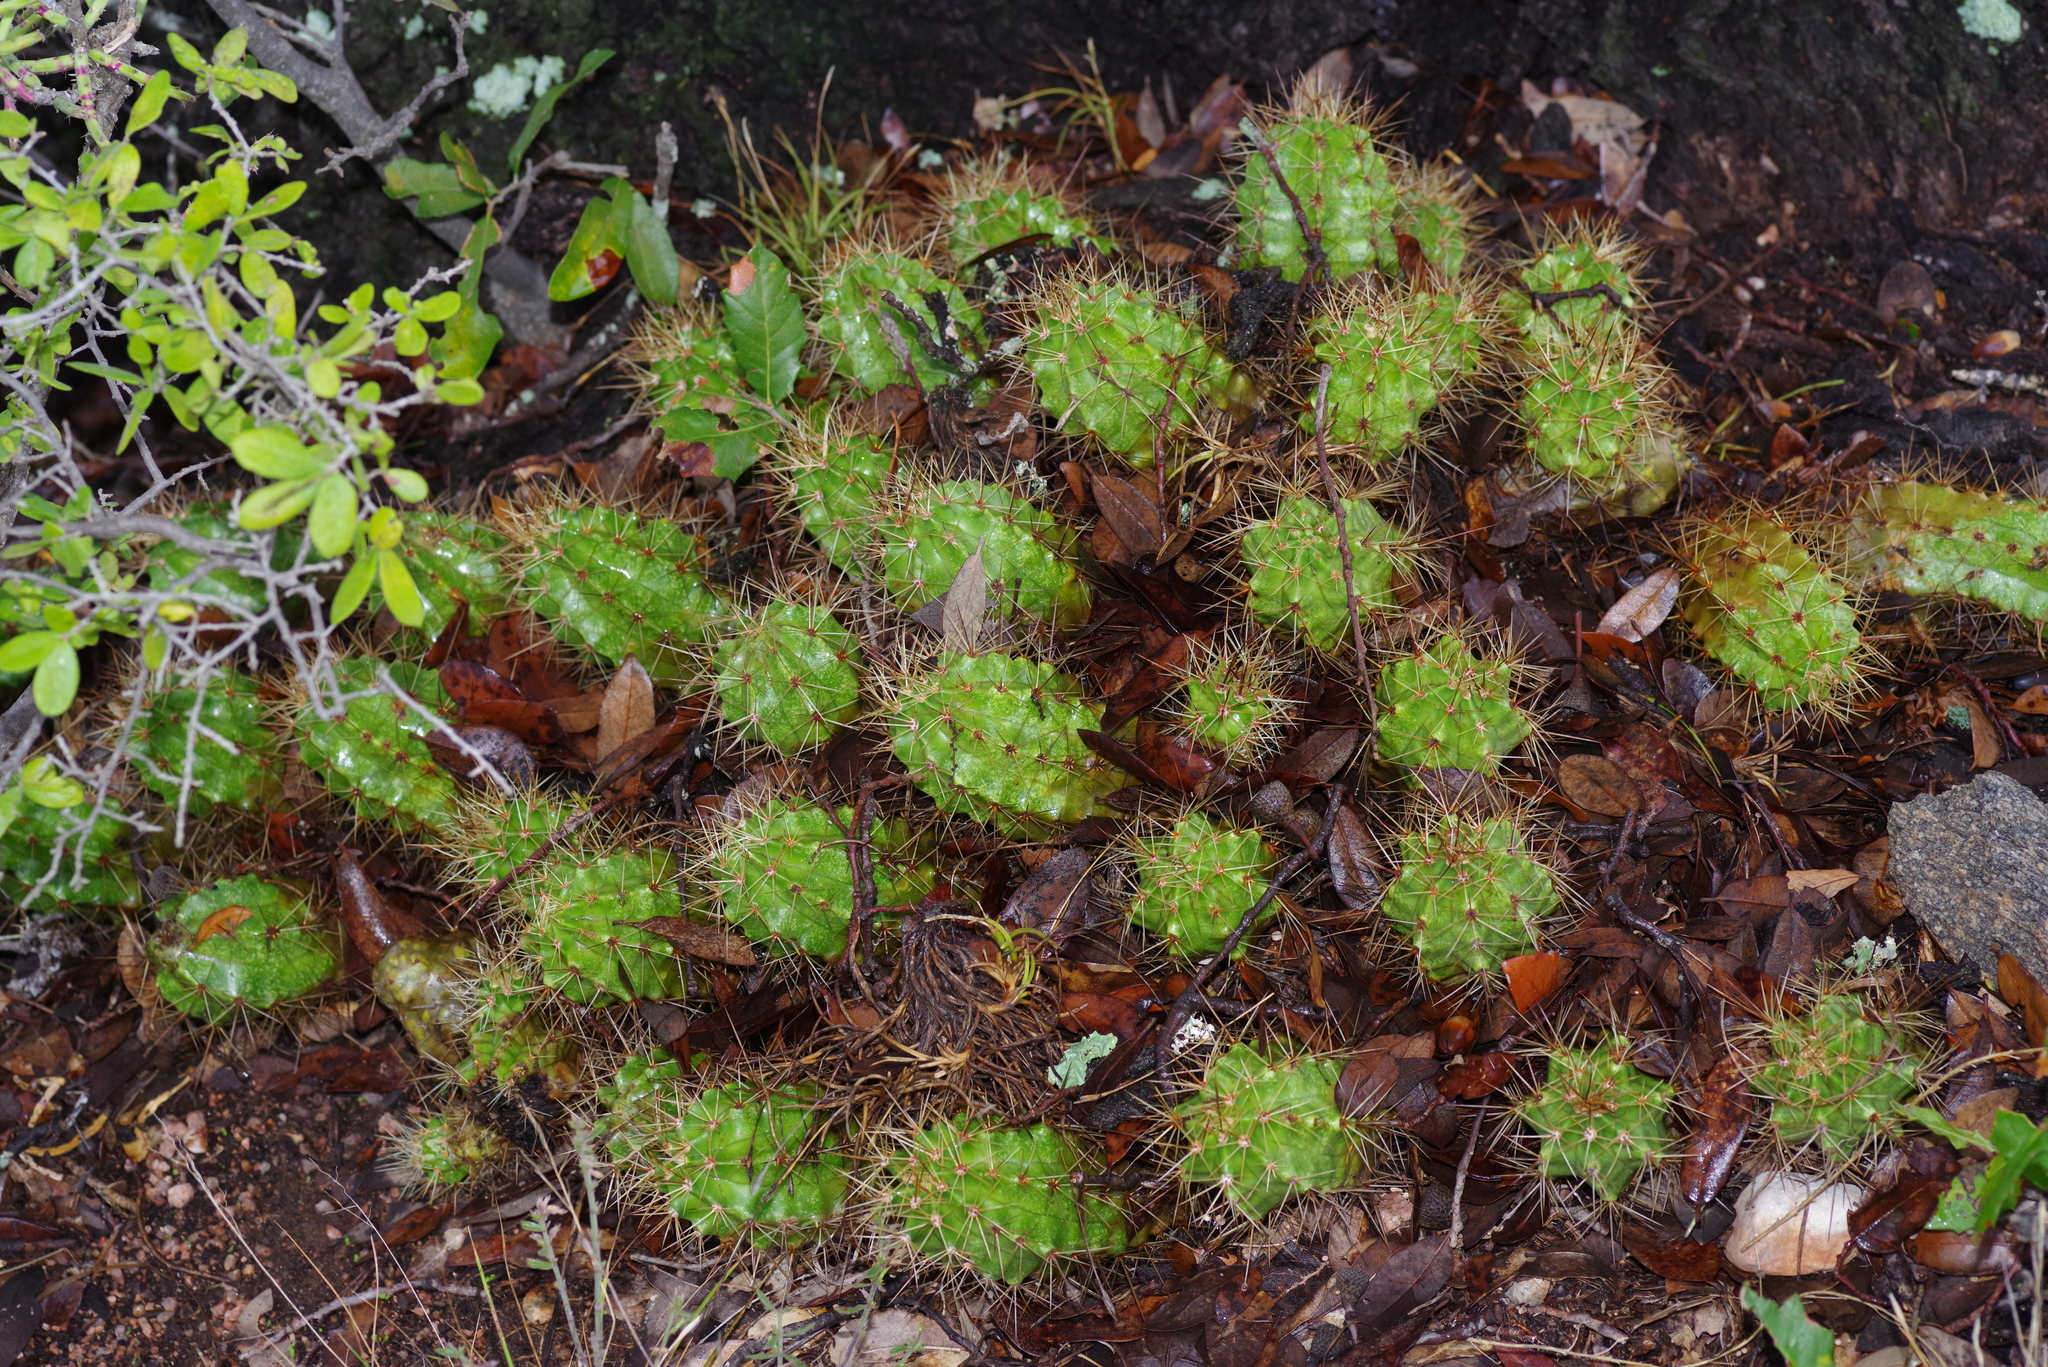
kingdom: Plantae
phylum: Tracheophyta
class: Magnoliopsida
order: Caryophyllales
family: Cactaceae
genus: Echinocereus
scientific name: Echinocereus coccineus
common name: Scarlet hedgehog cactus
